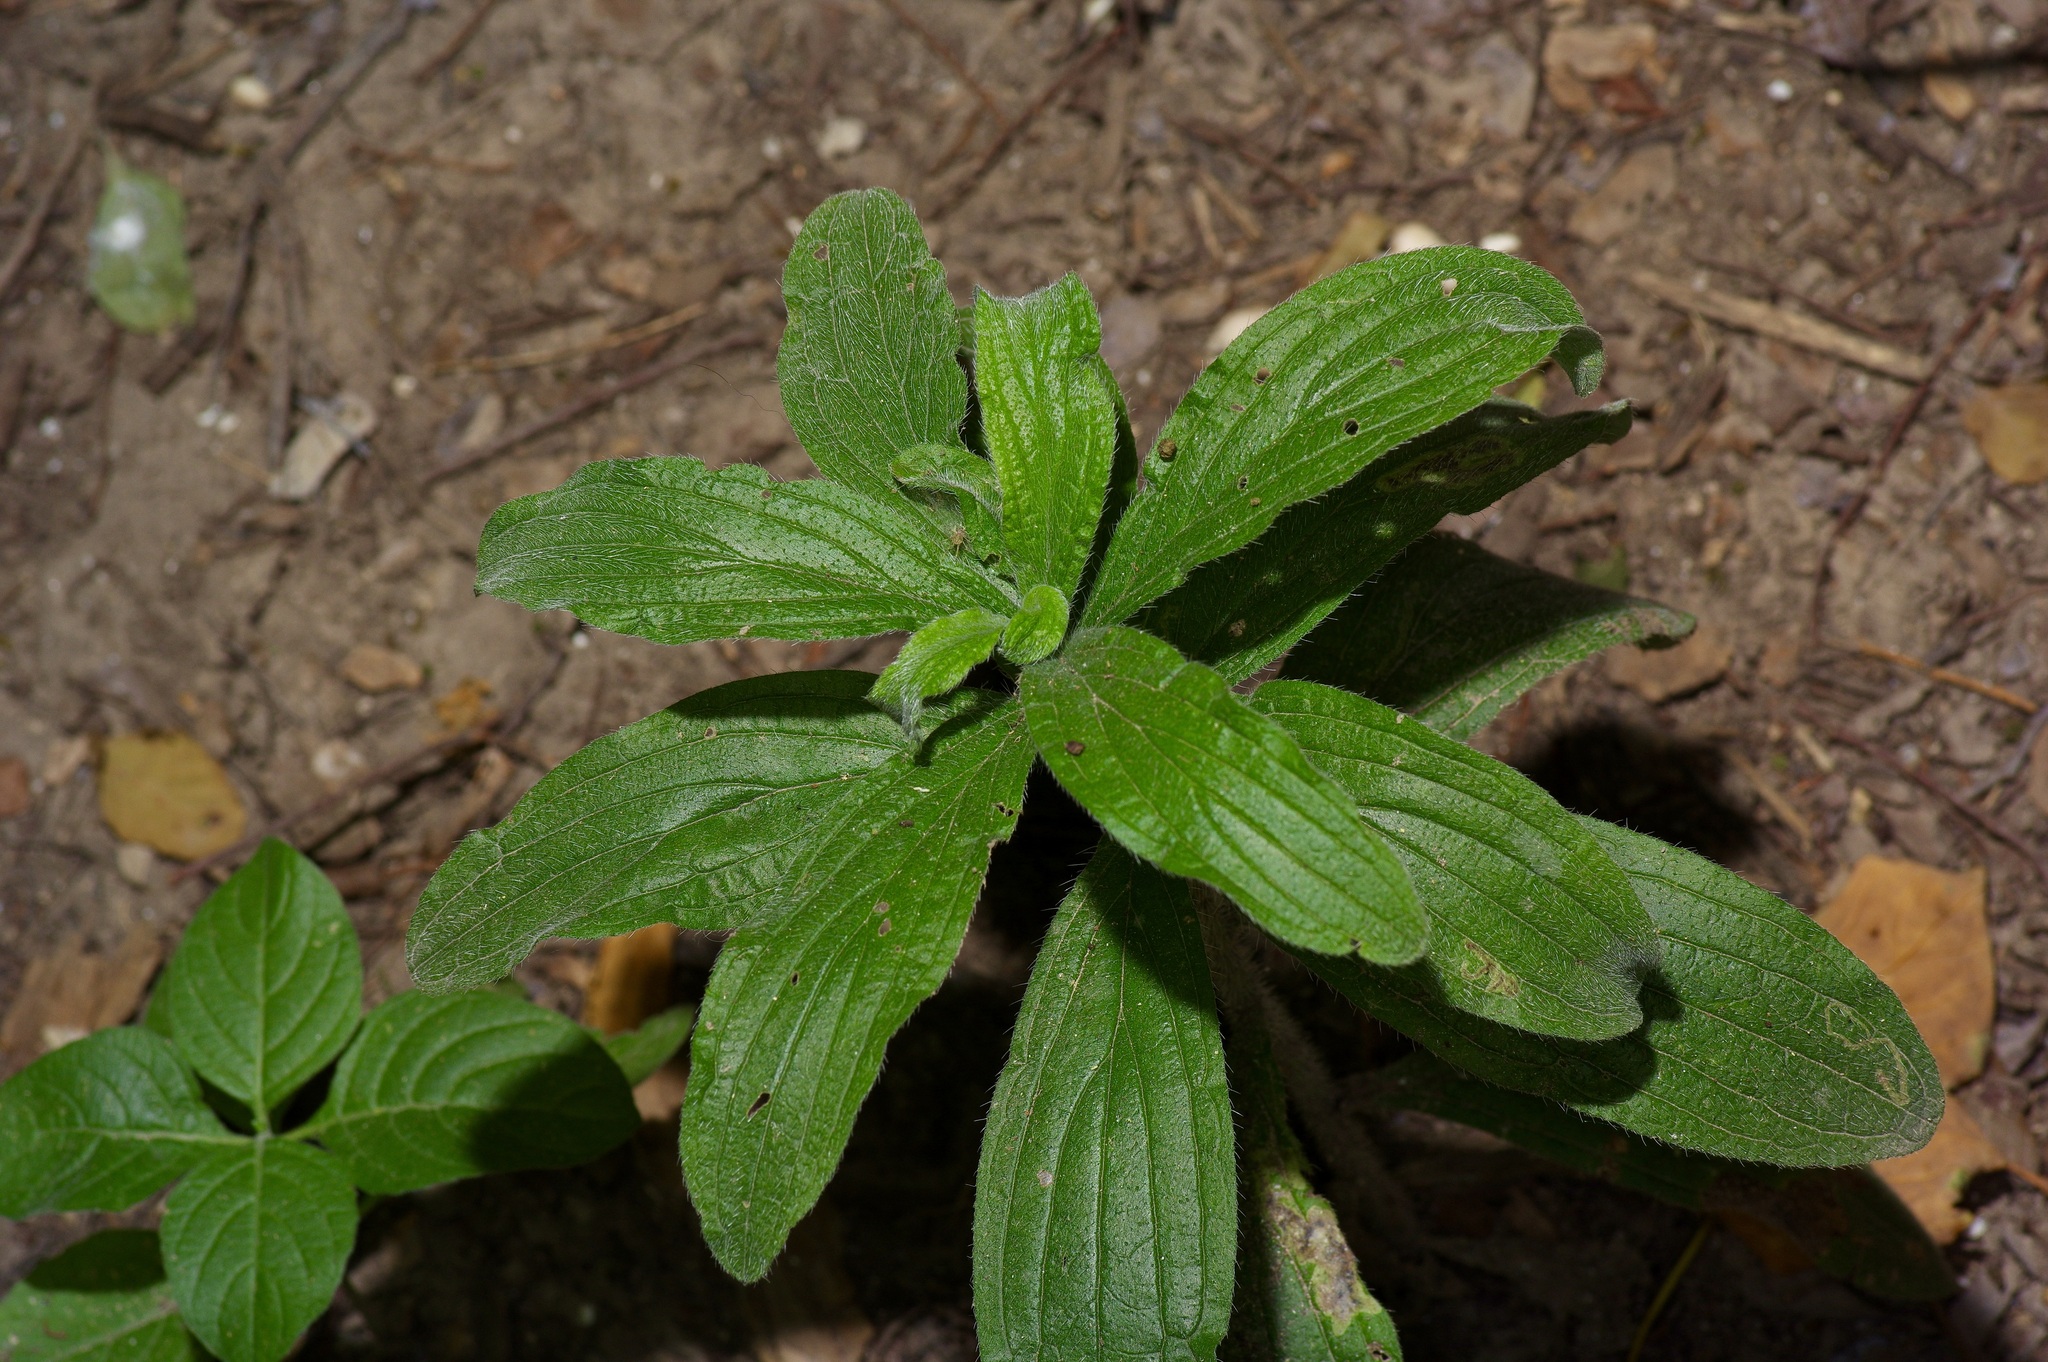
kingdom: Plantae
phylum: Tracheophyta
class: Magnoliopsida
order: Boraginales
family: Boraginaceae
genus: Lithospermum
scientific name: Lithospermum caroliniense
